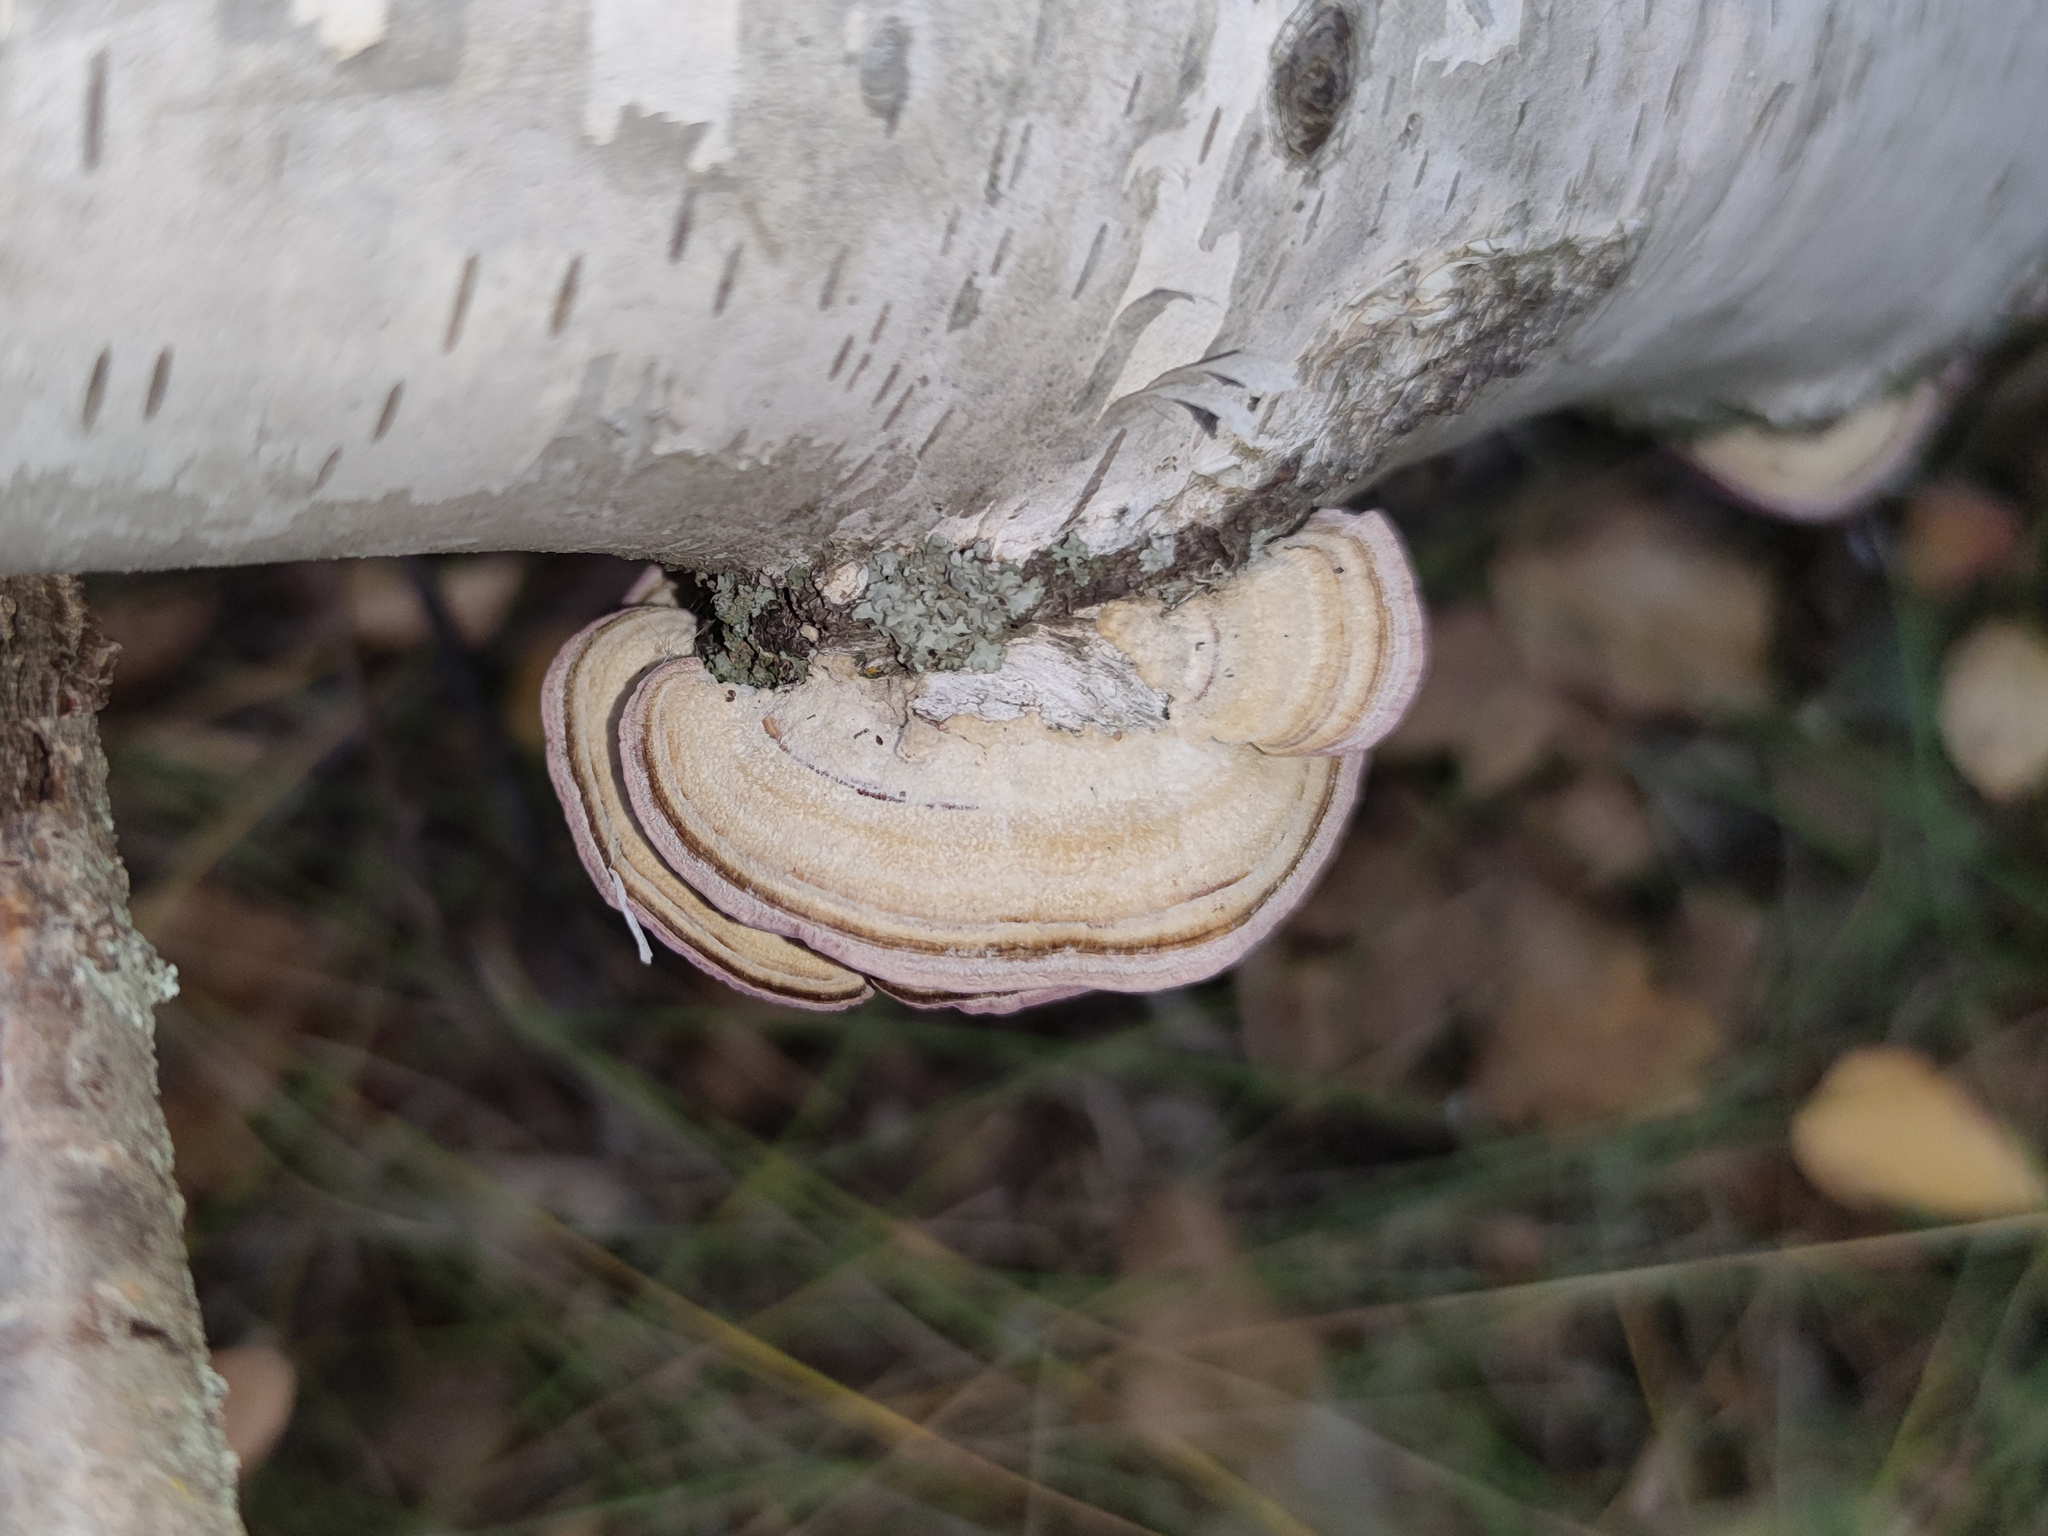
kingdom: Fungi
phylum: Basidiomycota
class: Agaricomycetes
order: Hymenochaetales
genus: Trichaptum
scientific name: Trichaptum biforme
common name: Violet-toothed polypore
